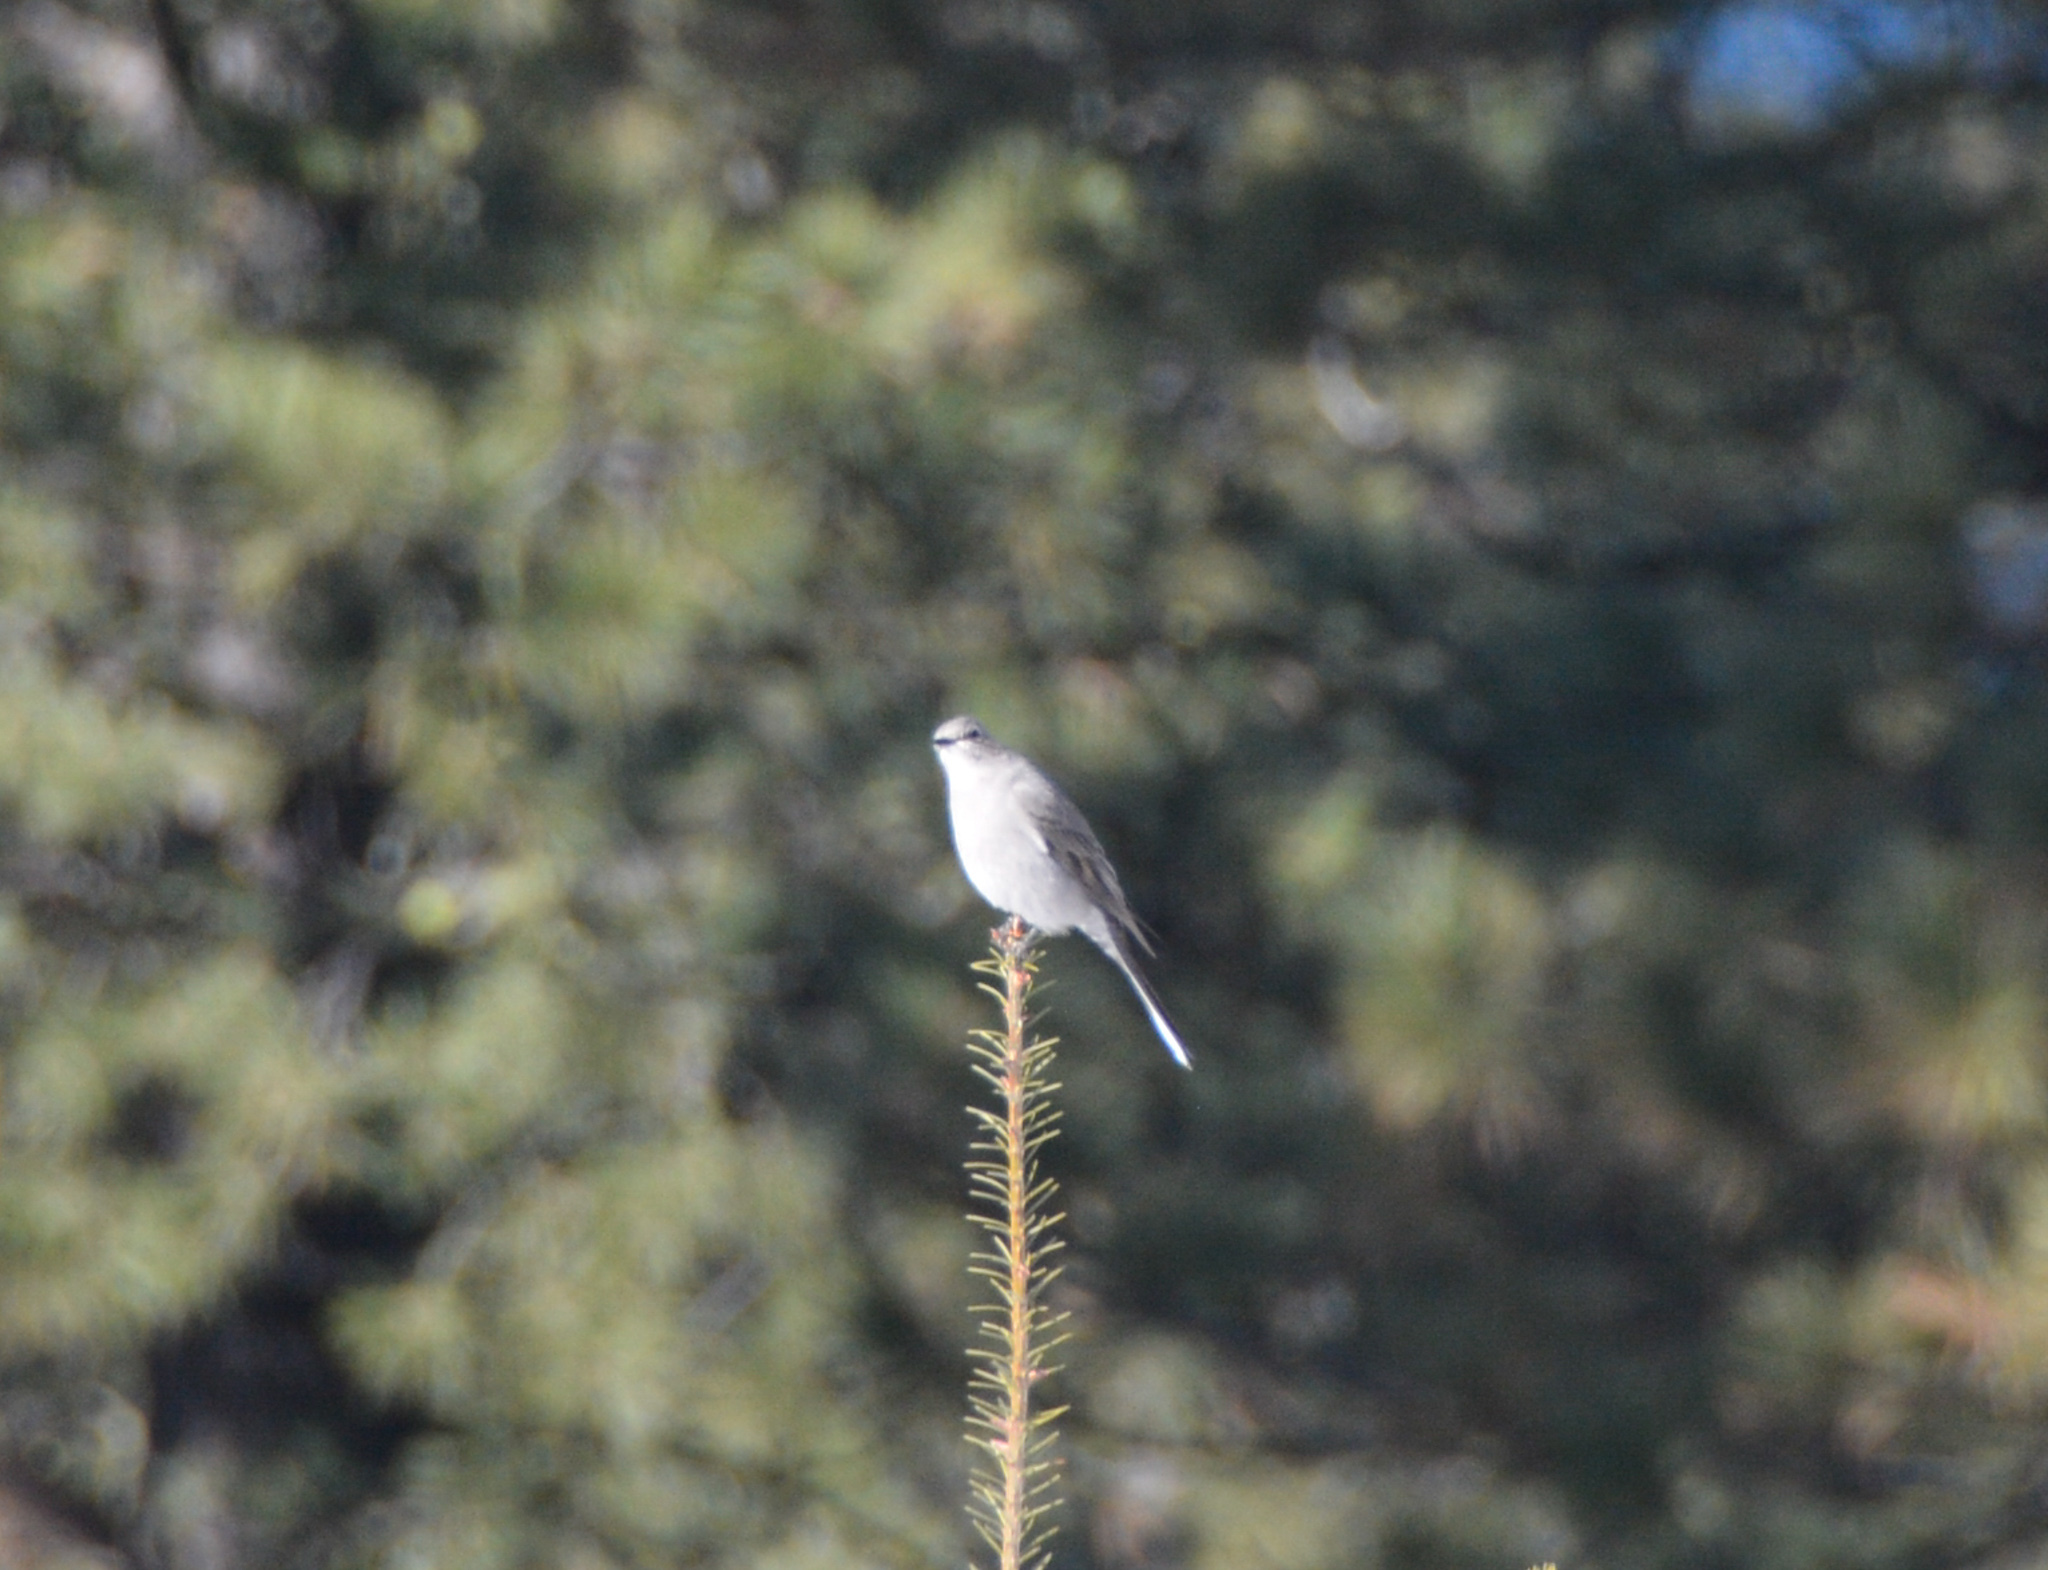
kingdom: Animalia
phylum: Chordata
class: Aves
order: Passeriformes
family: Turdidae
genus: Myadestes
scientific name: Myadestes townsendi
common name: Townsend's solitaire
